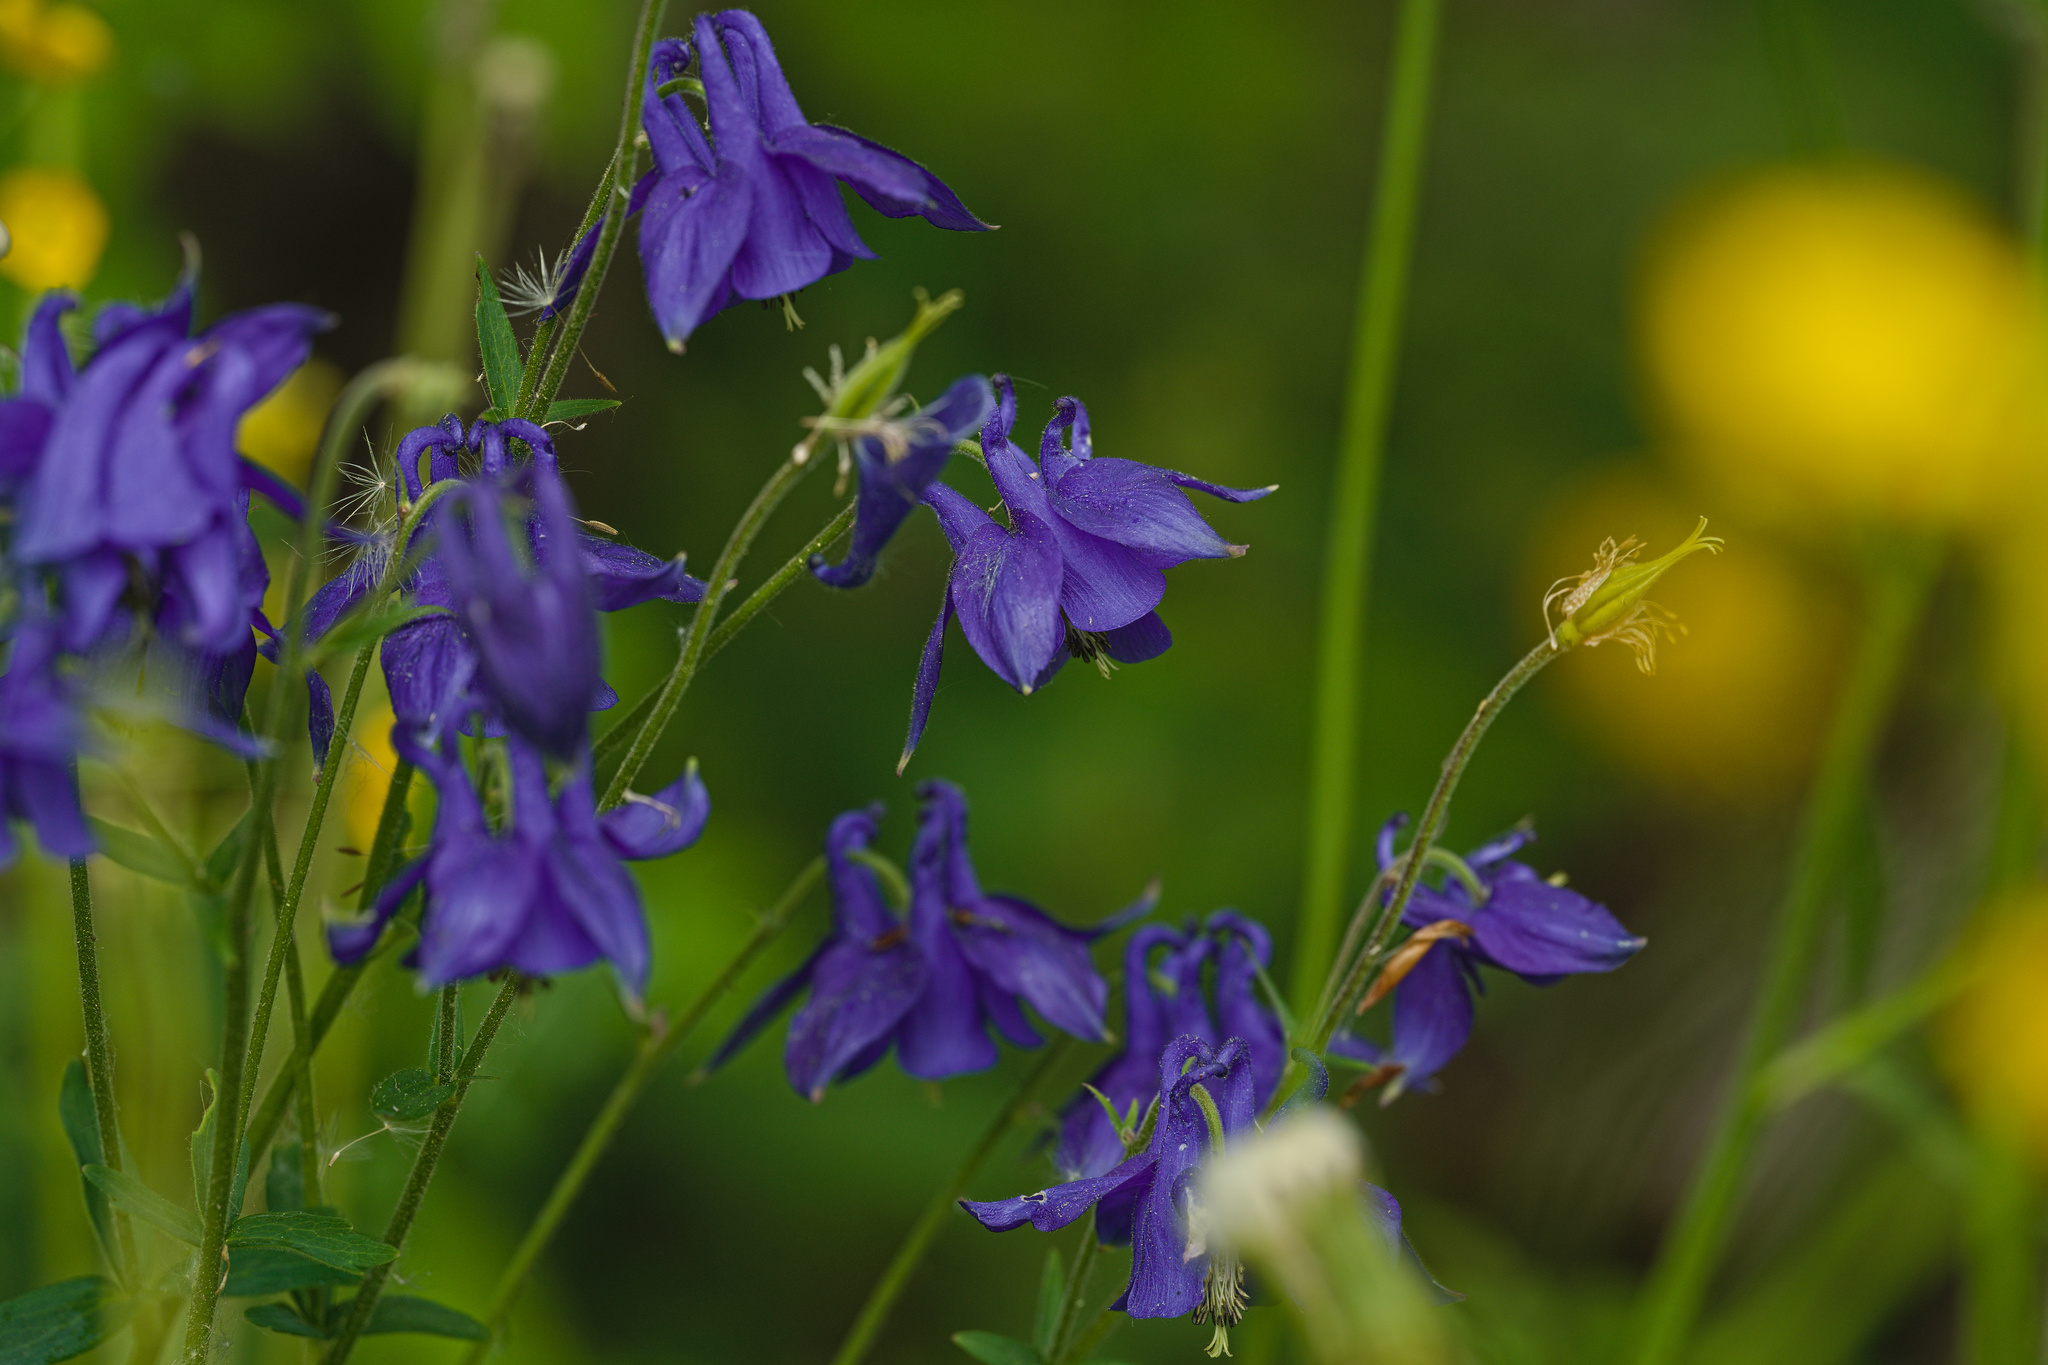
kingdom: Plantae
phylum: Tracheophyta
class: Magnoliopsida
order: Ranunculales
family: Ranunculaceae
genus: Aquilegia
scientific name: Aquilegia vulgaris
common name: Columbine
